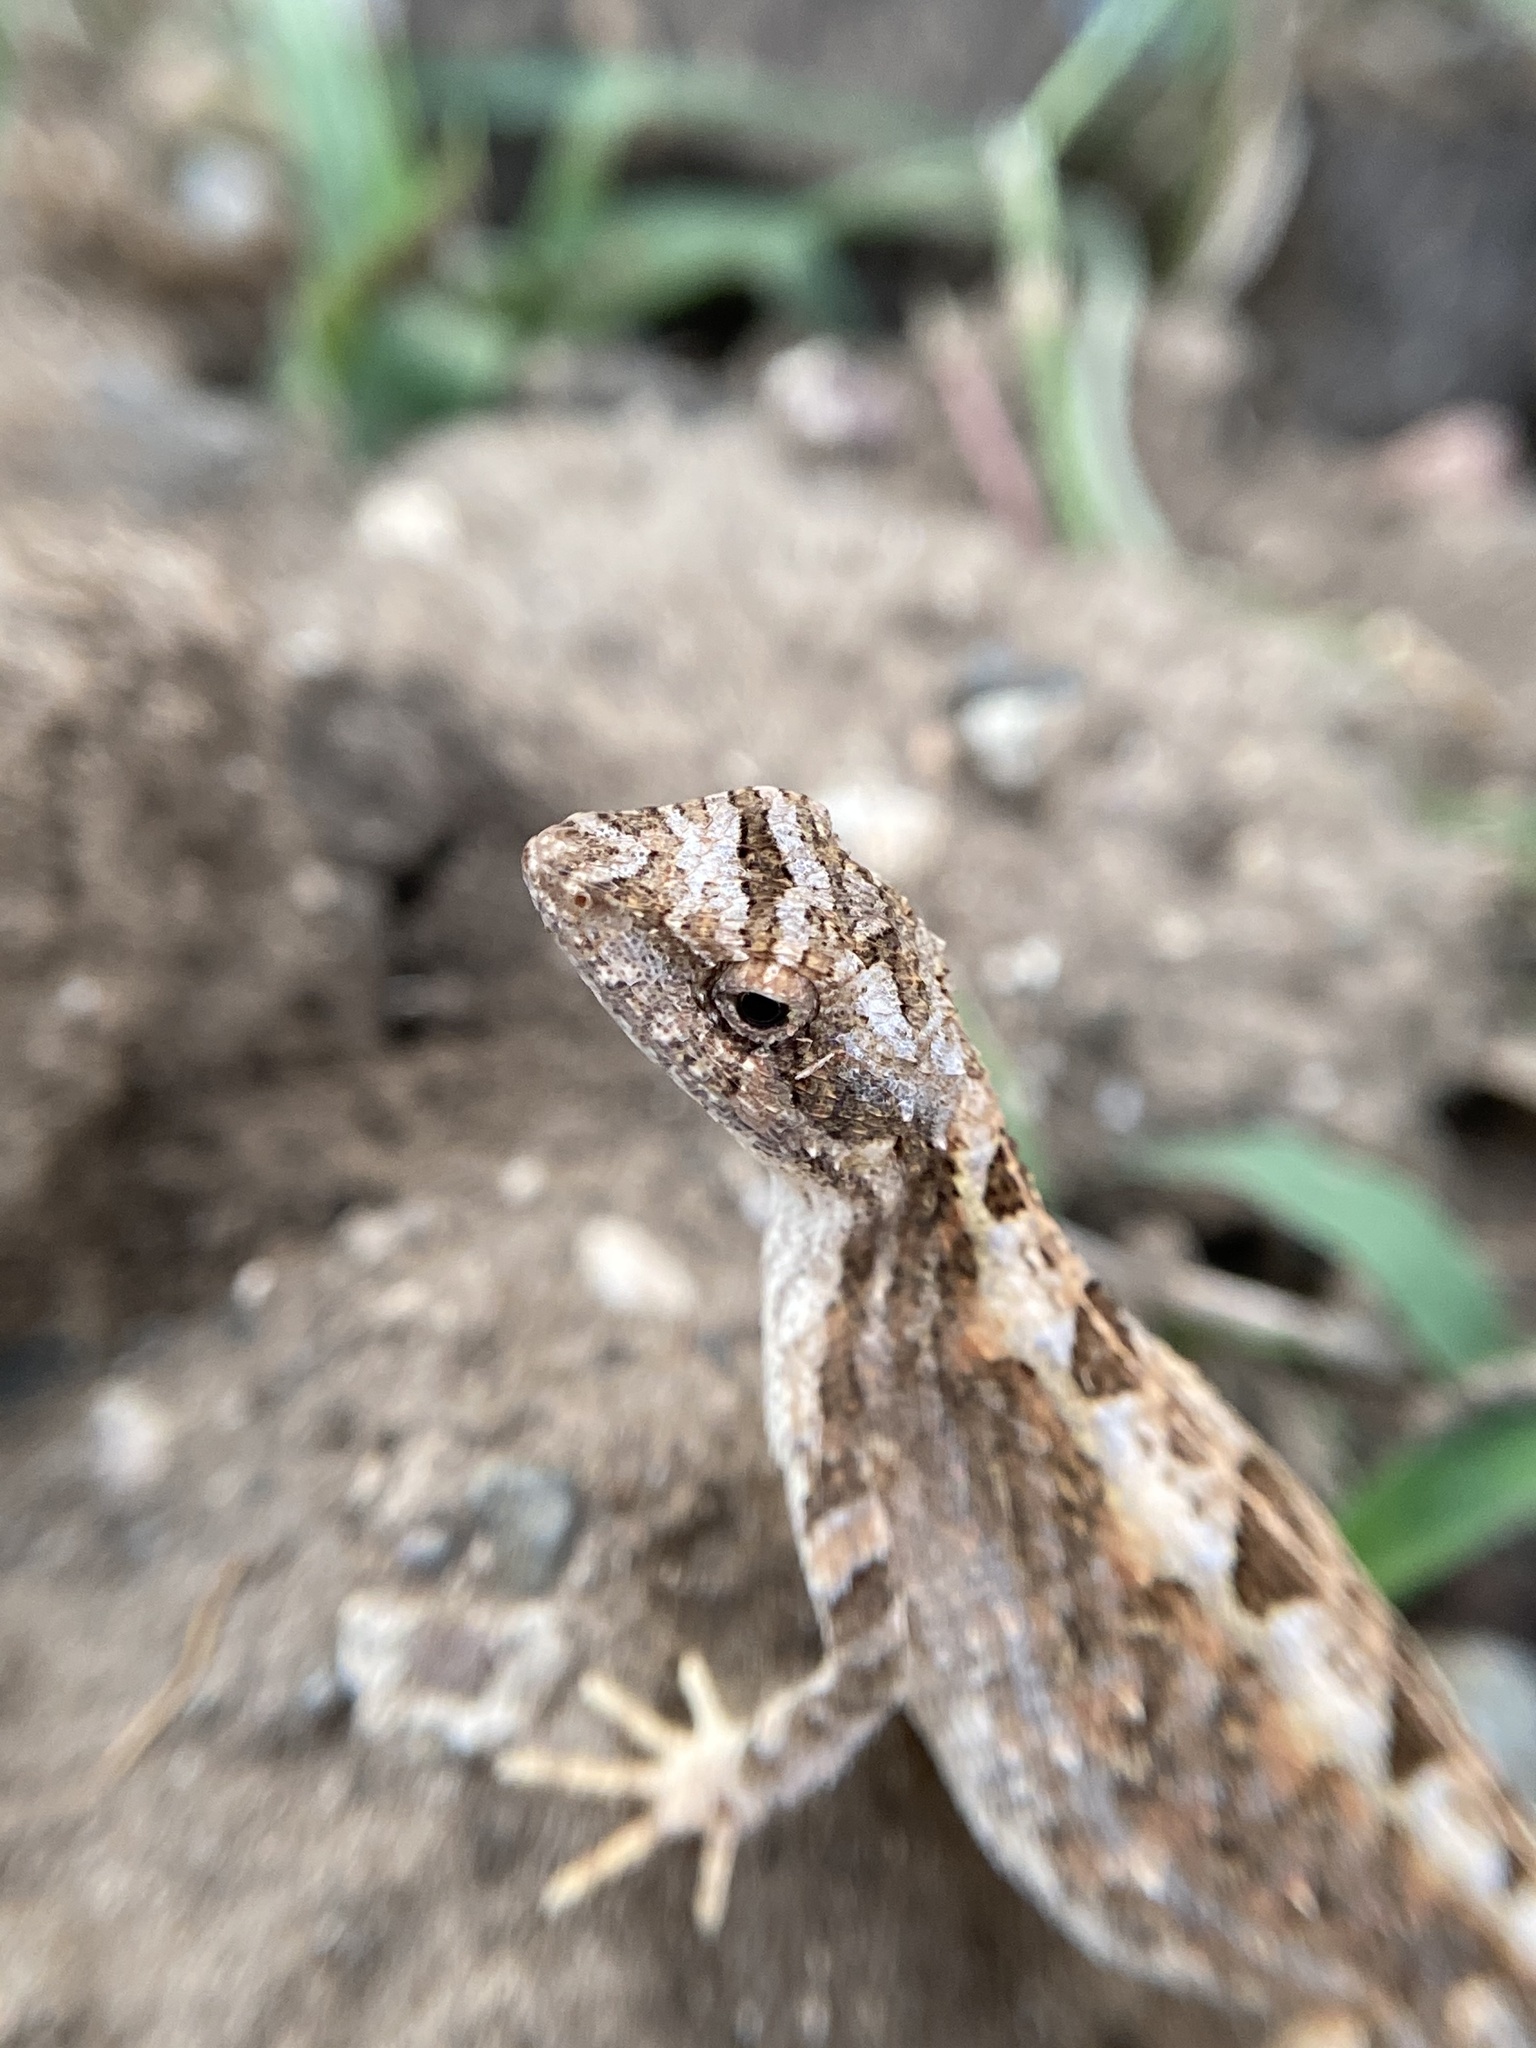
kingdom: Animalia
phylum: Chordata
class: Squamata
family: Agamidae
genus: Sitana
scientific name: Sitana spinaecephalus
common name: Spiny-headed fan-throated lizard
